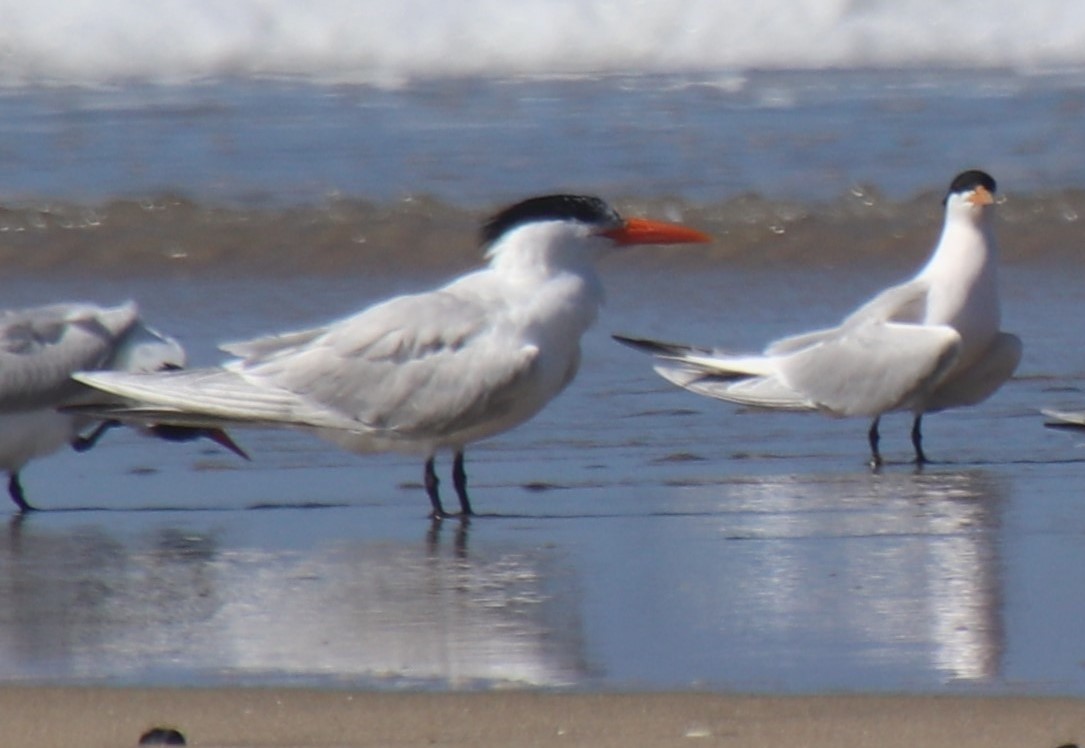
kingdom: Animalia
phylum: Chordata
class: Aves
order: Charadriiformes
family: Laridae
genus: Thalasseus
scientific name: Thalasseus maximus
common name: Royal tern
